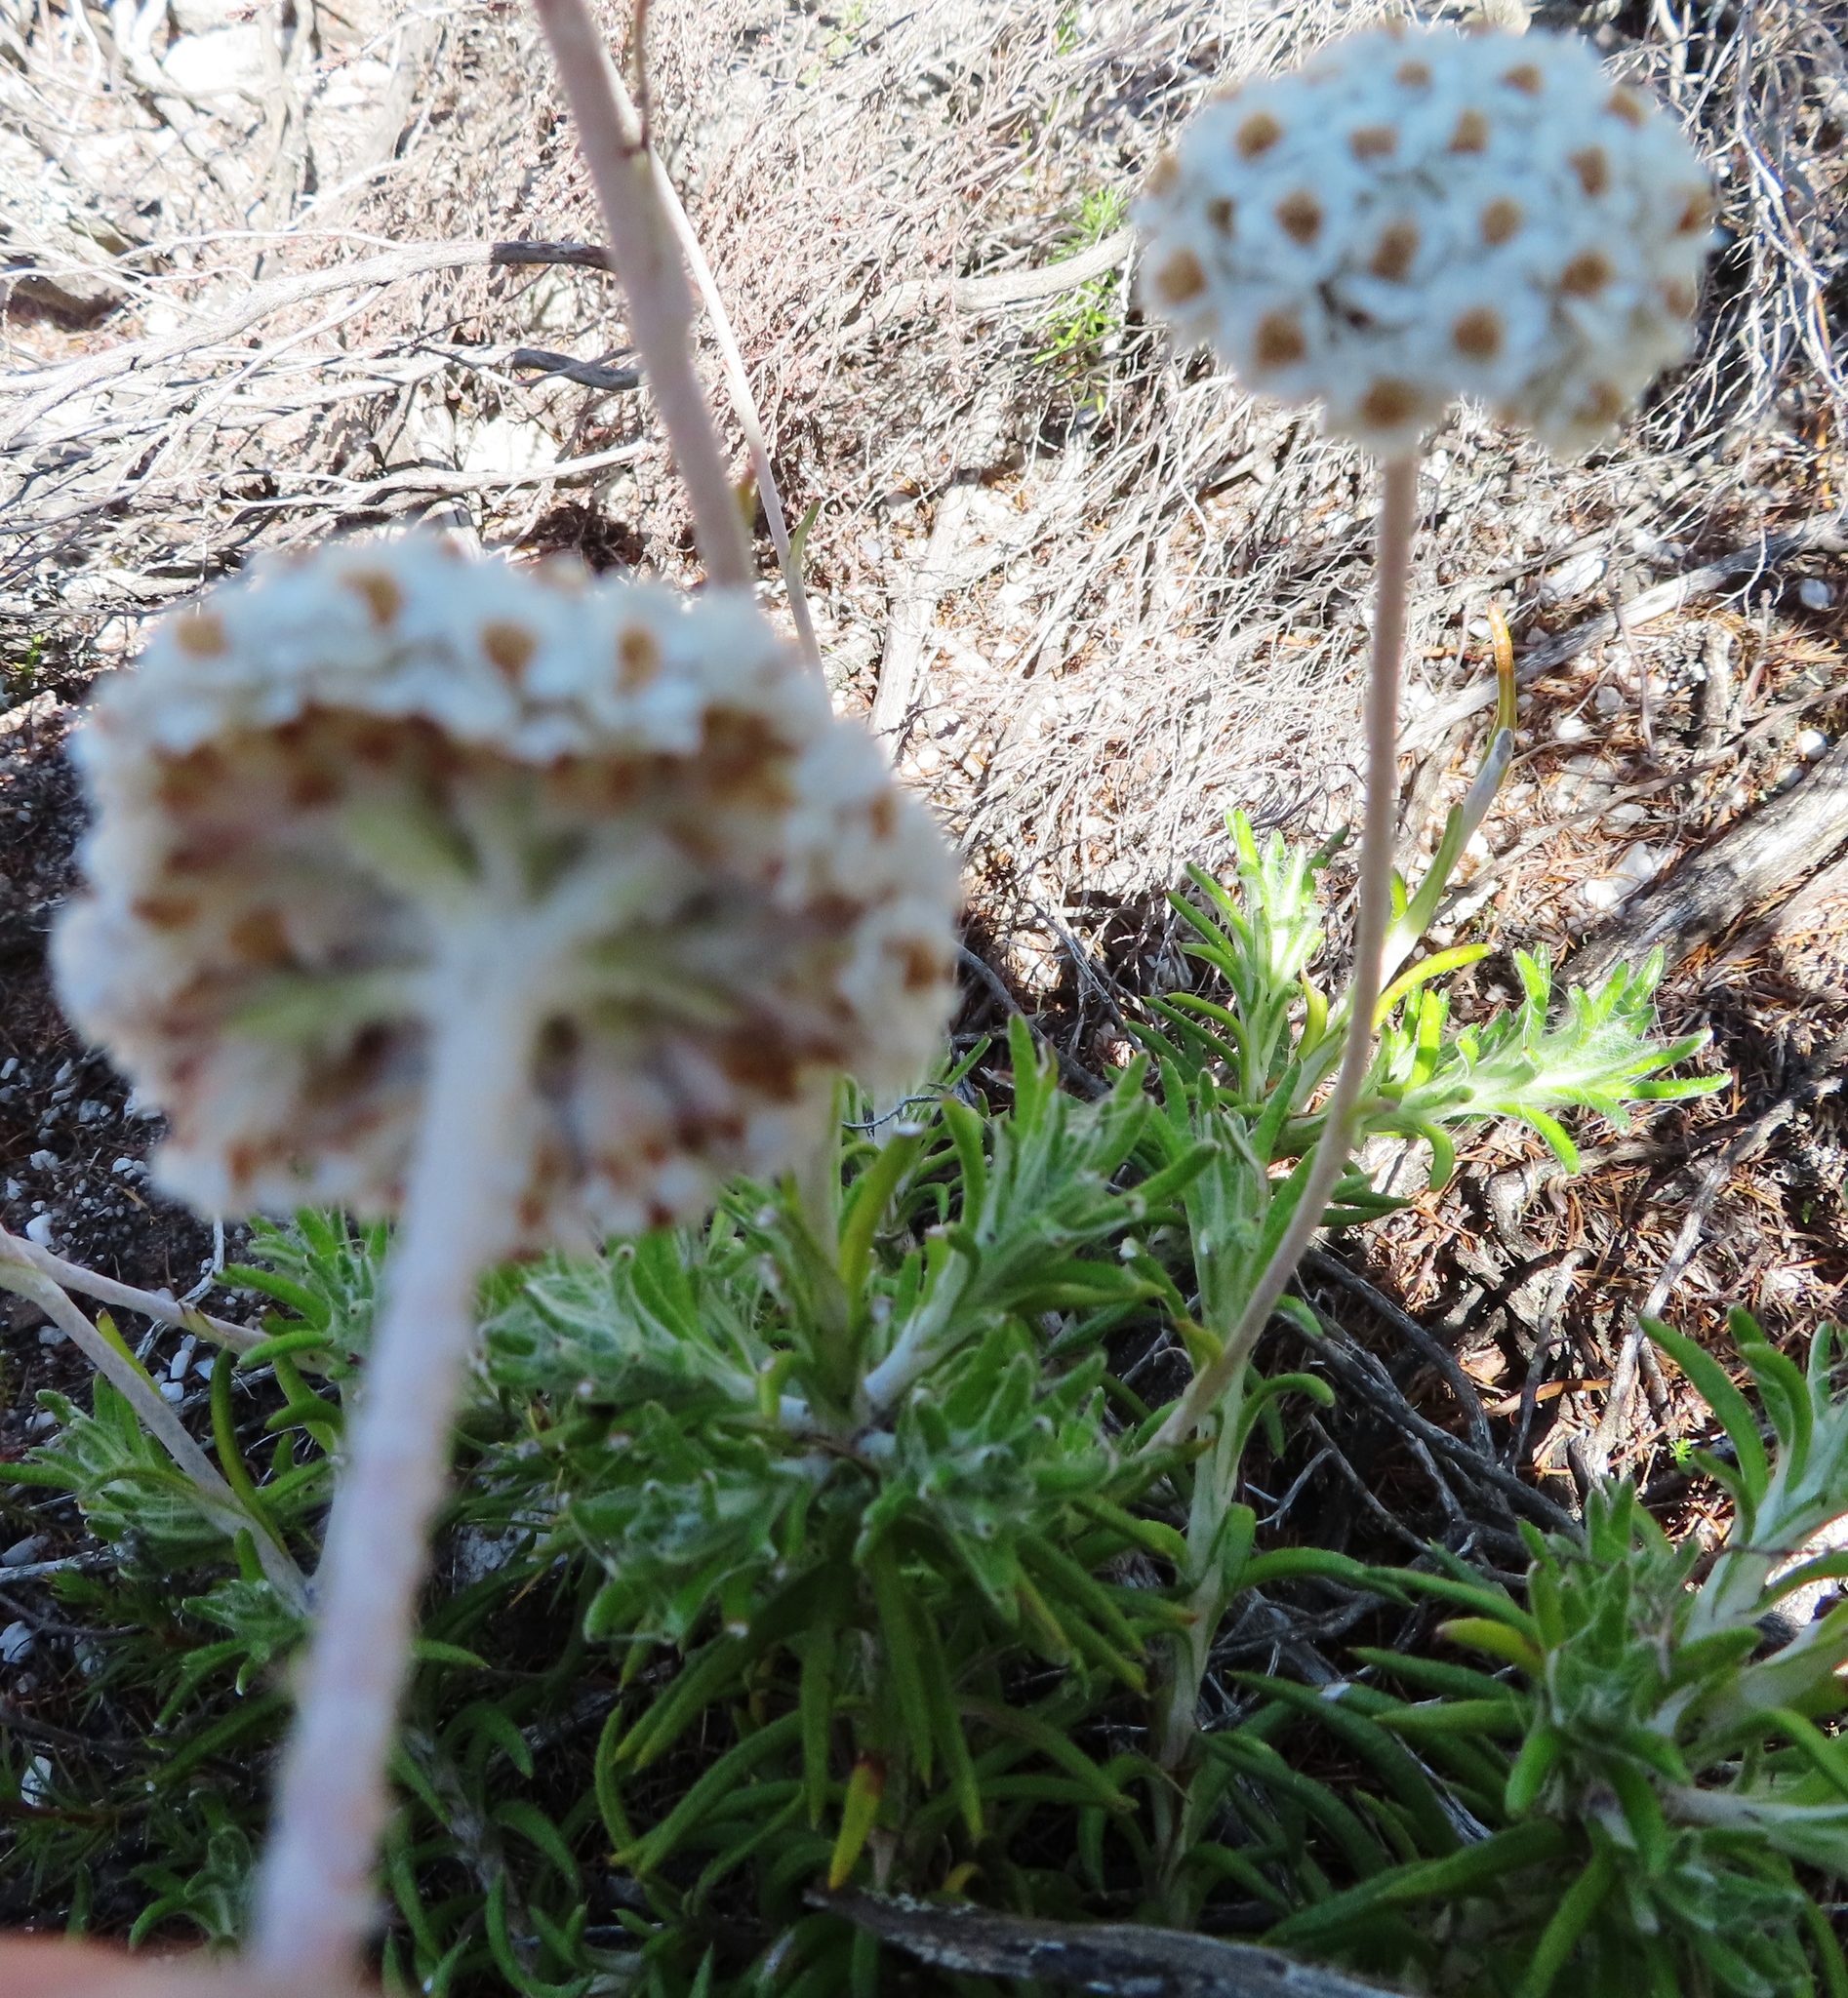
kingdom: Plantae
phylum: Tracheophyta
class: Magnoliopsida
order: Asterales
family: Asteraceae
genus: Anaxeton
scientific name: Anaxeton asperum
